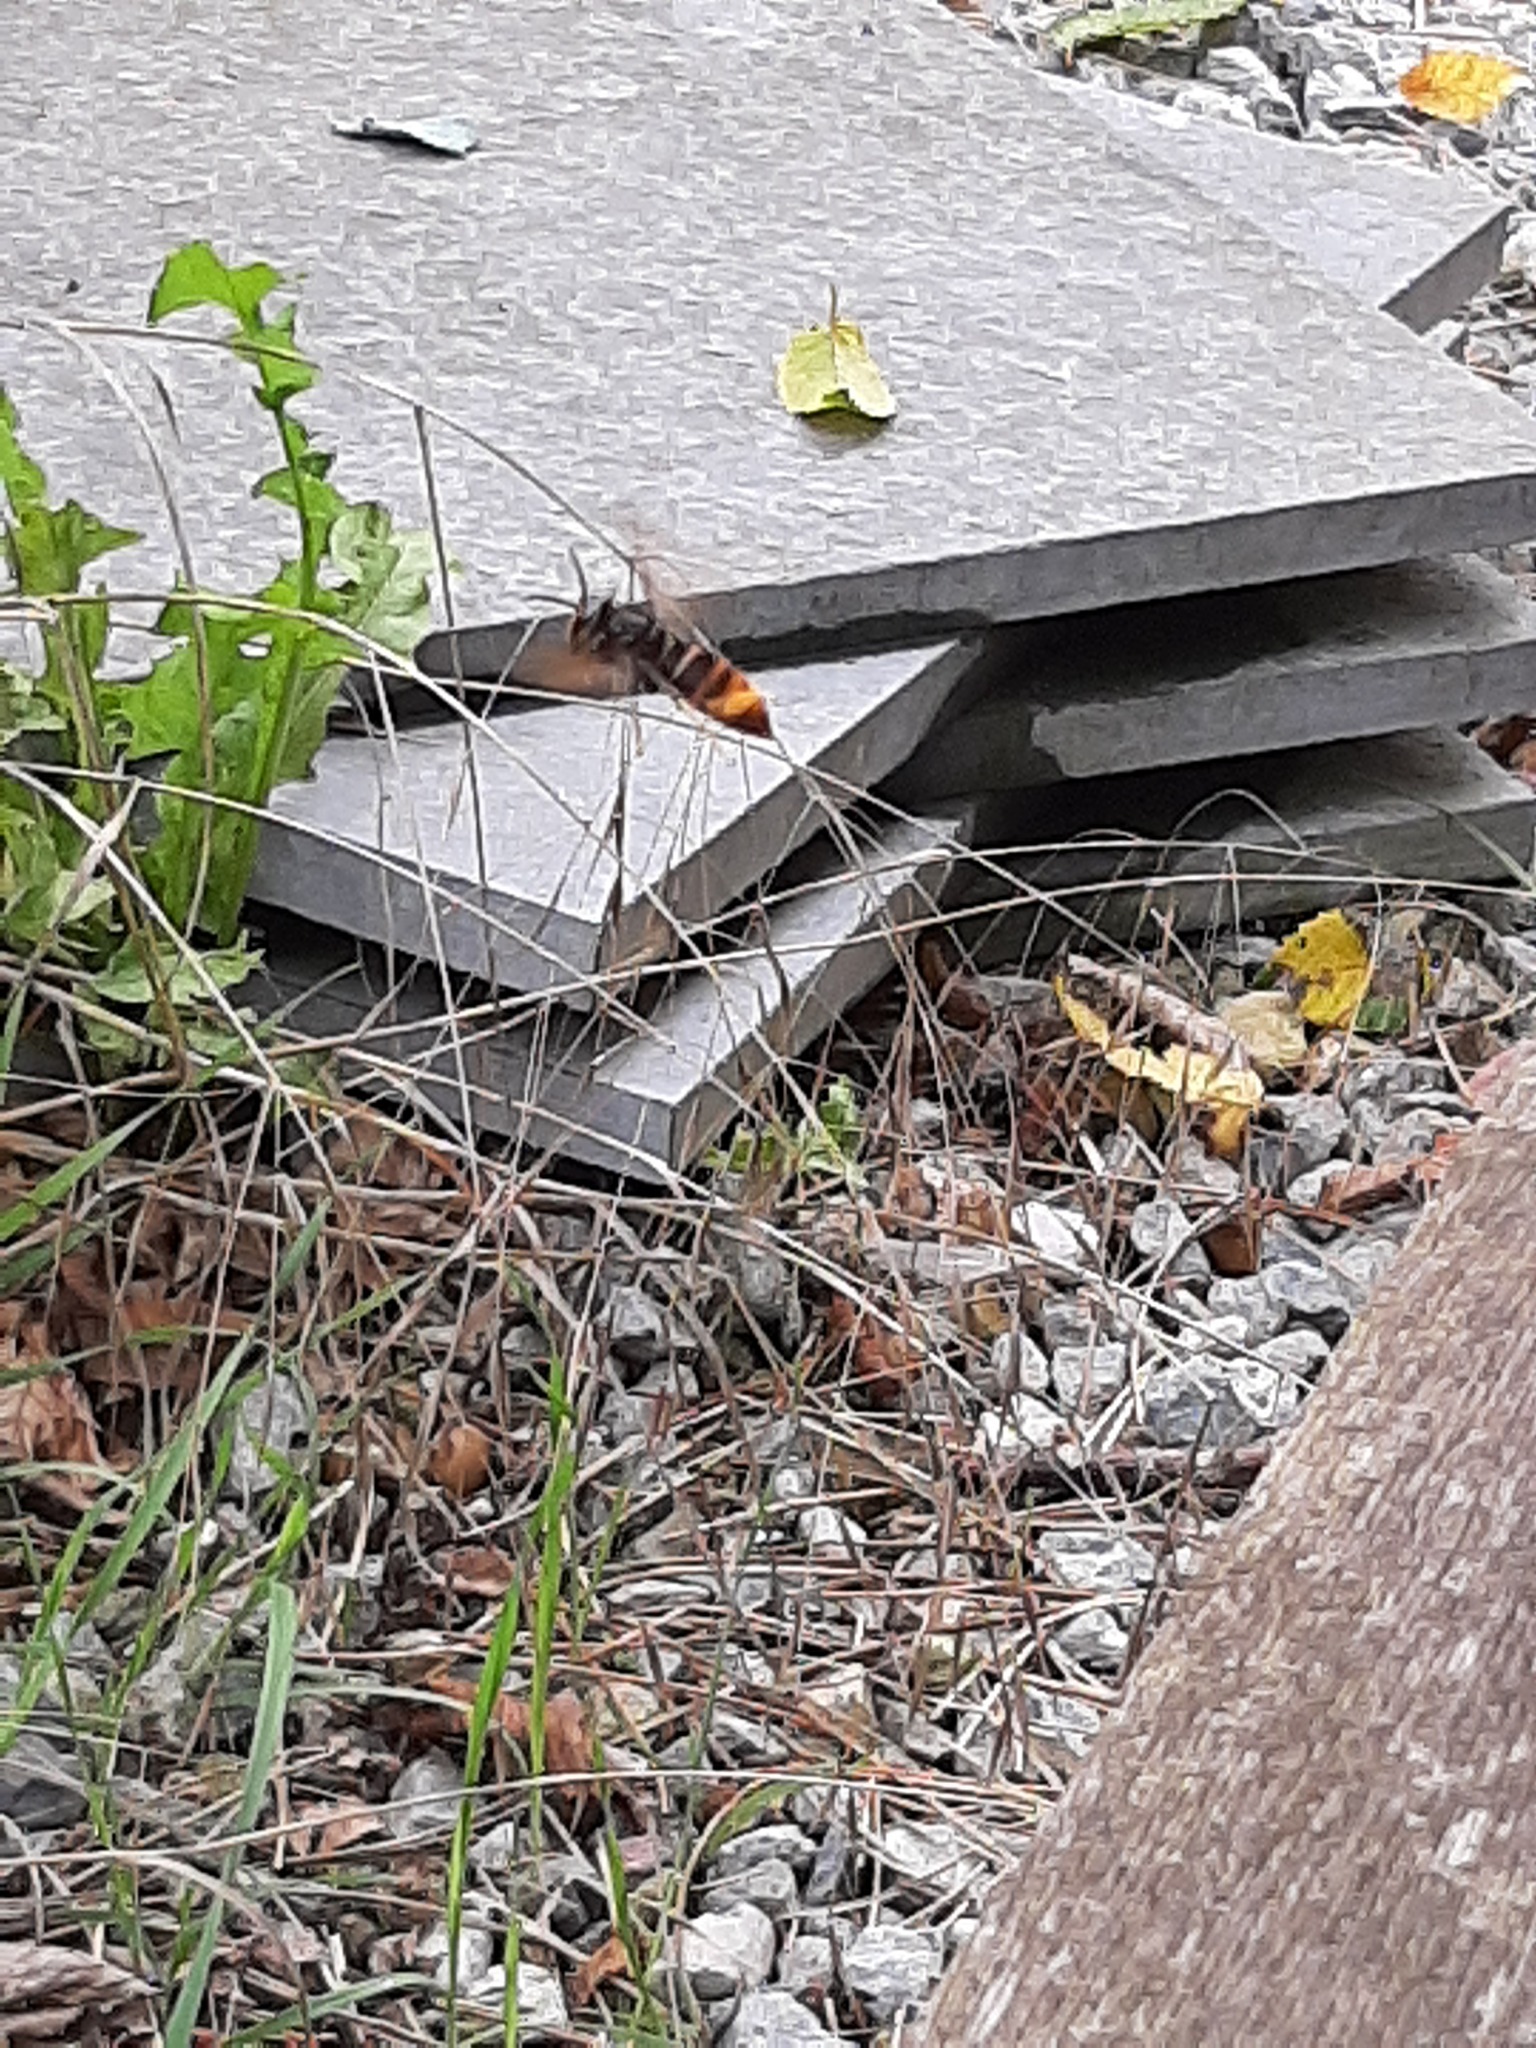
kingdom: Animalia
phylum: Arthropoda
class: Insecta
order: Hymenoptera
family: Vespidae
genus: Vespa
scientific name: Vespa velutina
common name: Asian hornet
